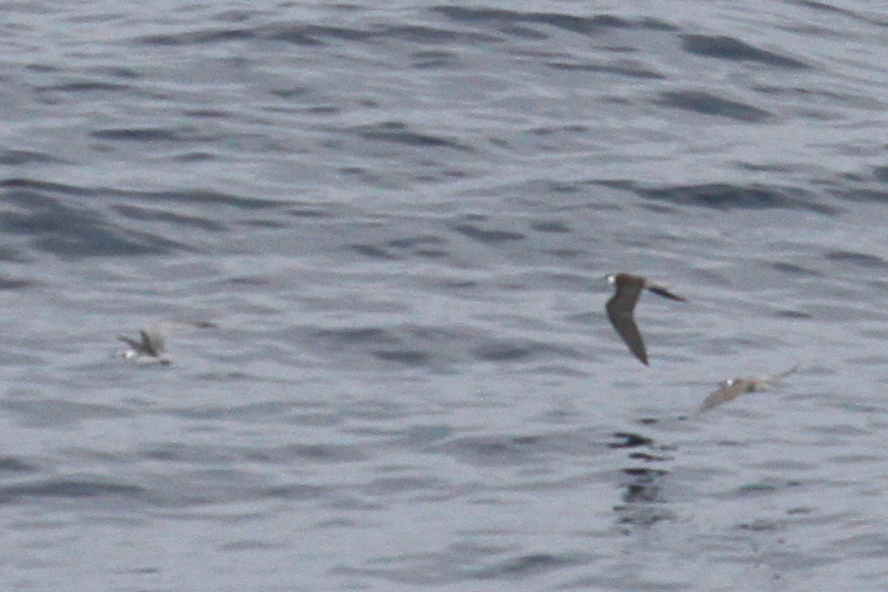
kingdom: Animalia
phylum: Chordata
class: Aves
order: Charadriiformes
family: Laridae
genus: Chlidonias
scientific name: Chlidonias niger
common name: Black tern
